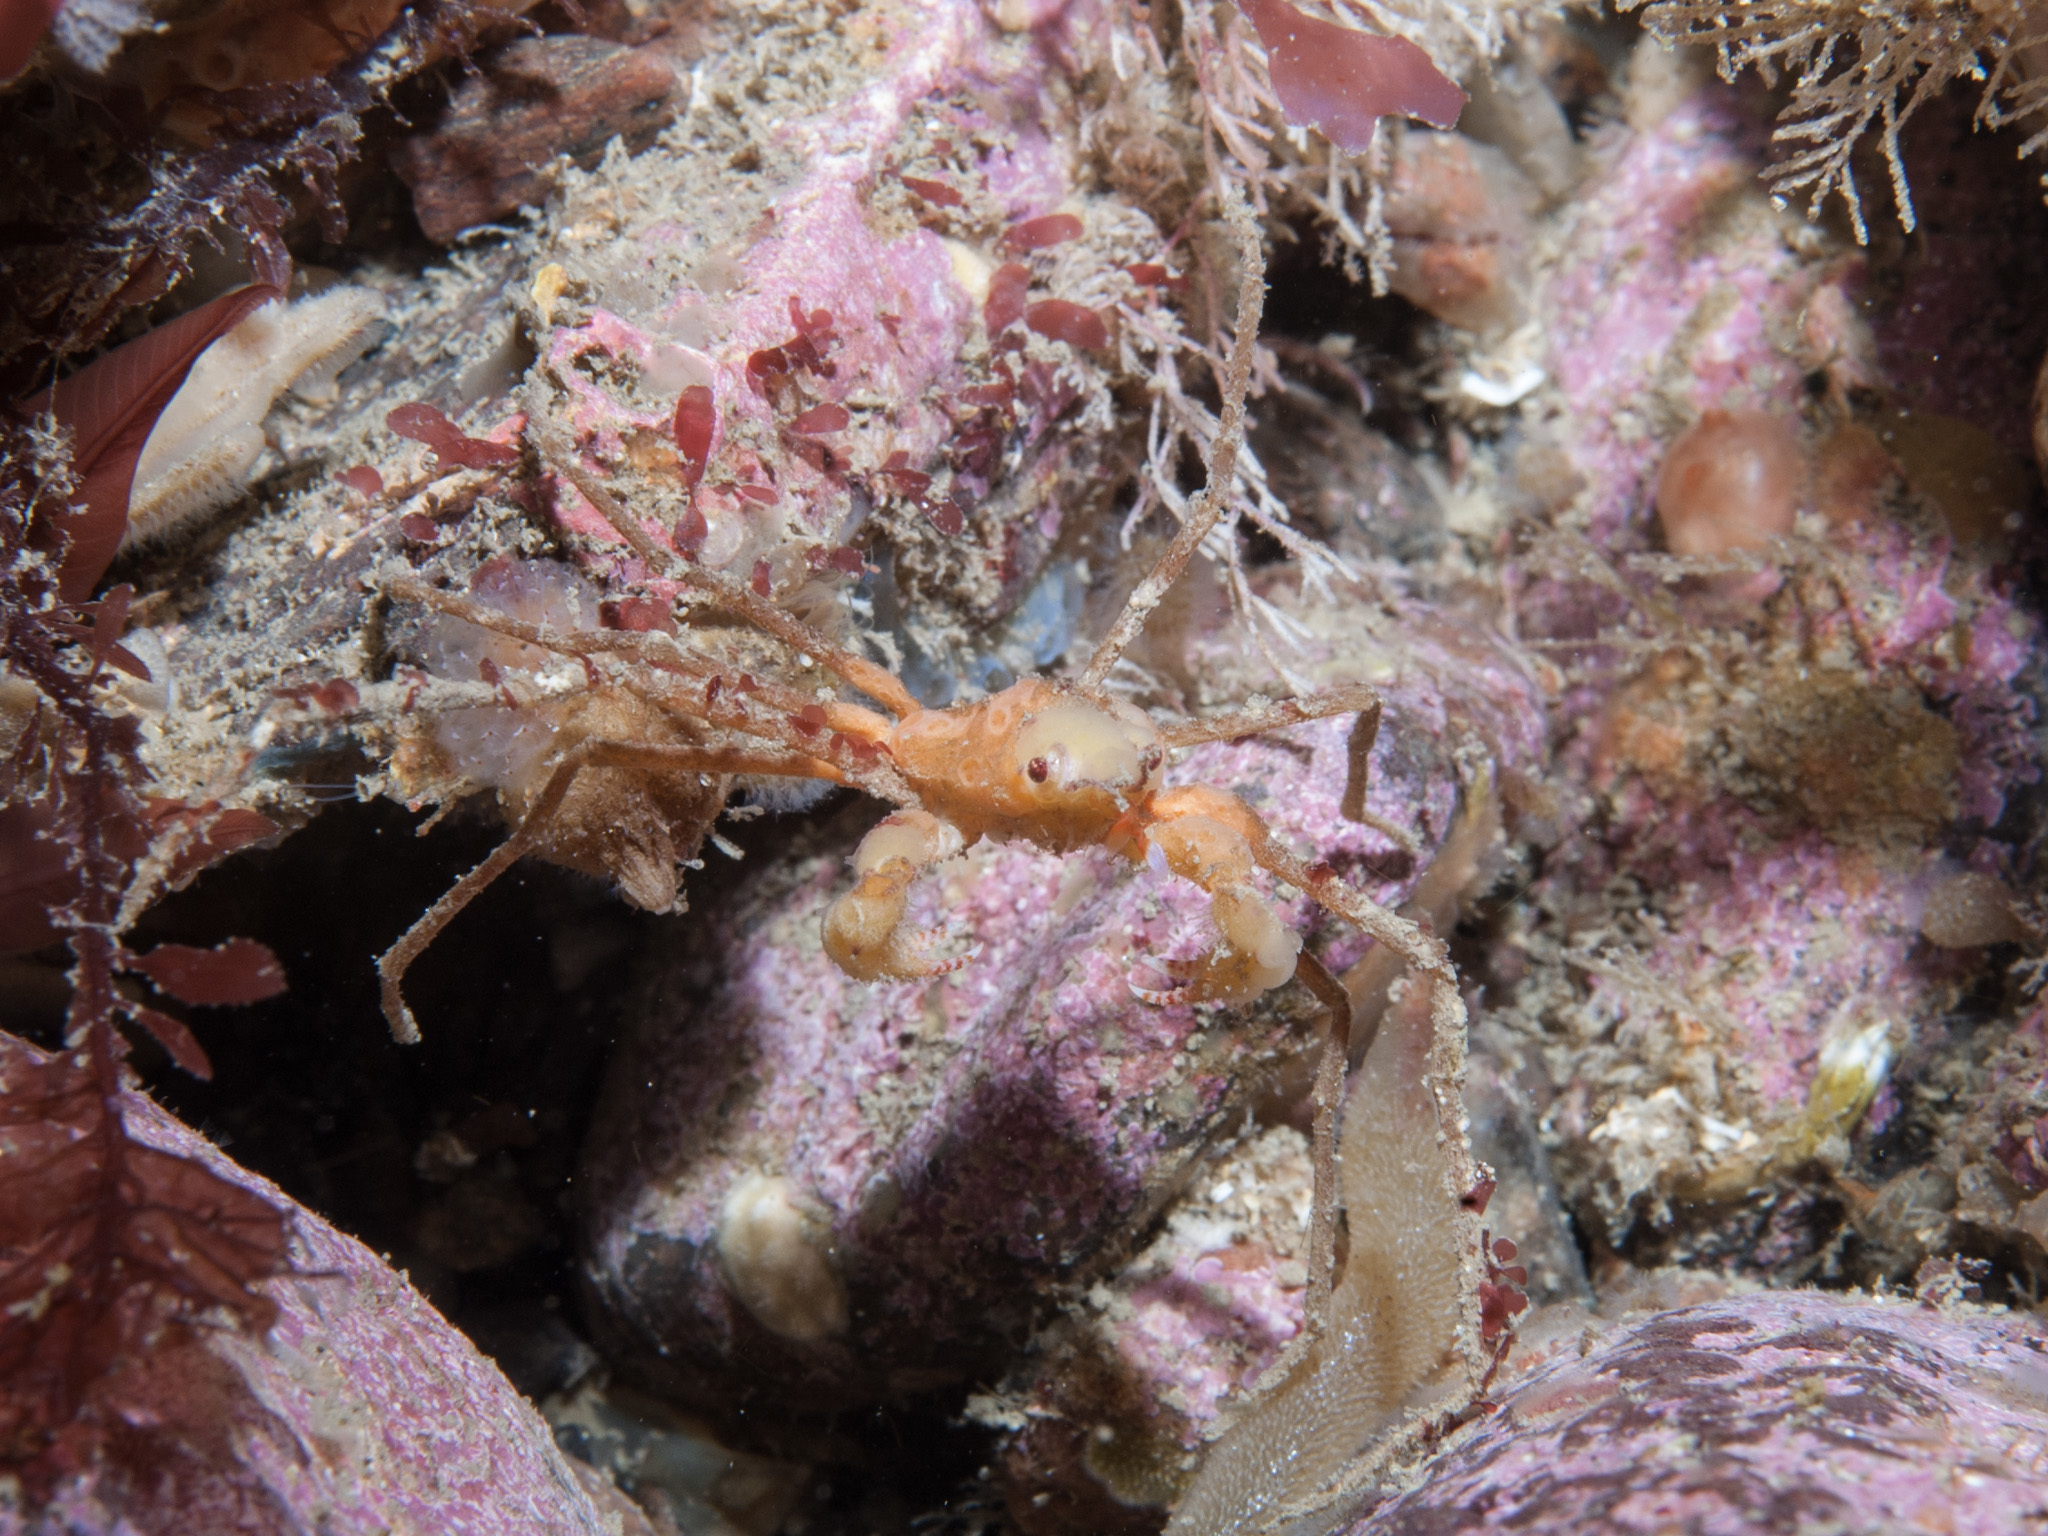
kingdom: Animalia
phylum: Arthropoda
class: Malacostraca
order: Decapoda
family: Inachidae
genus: Inachus
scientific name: Inachus phalangium
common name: Leach's spider crab
